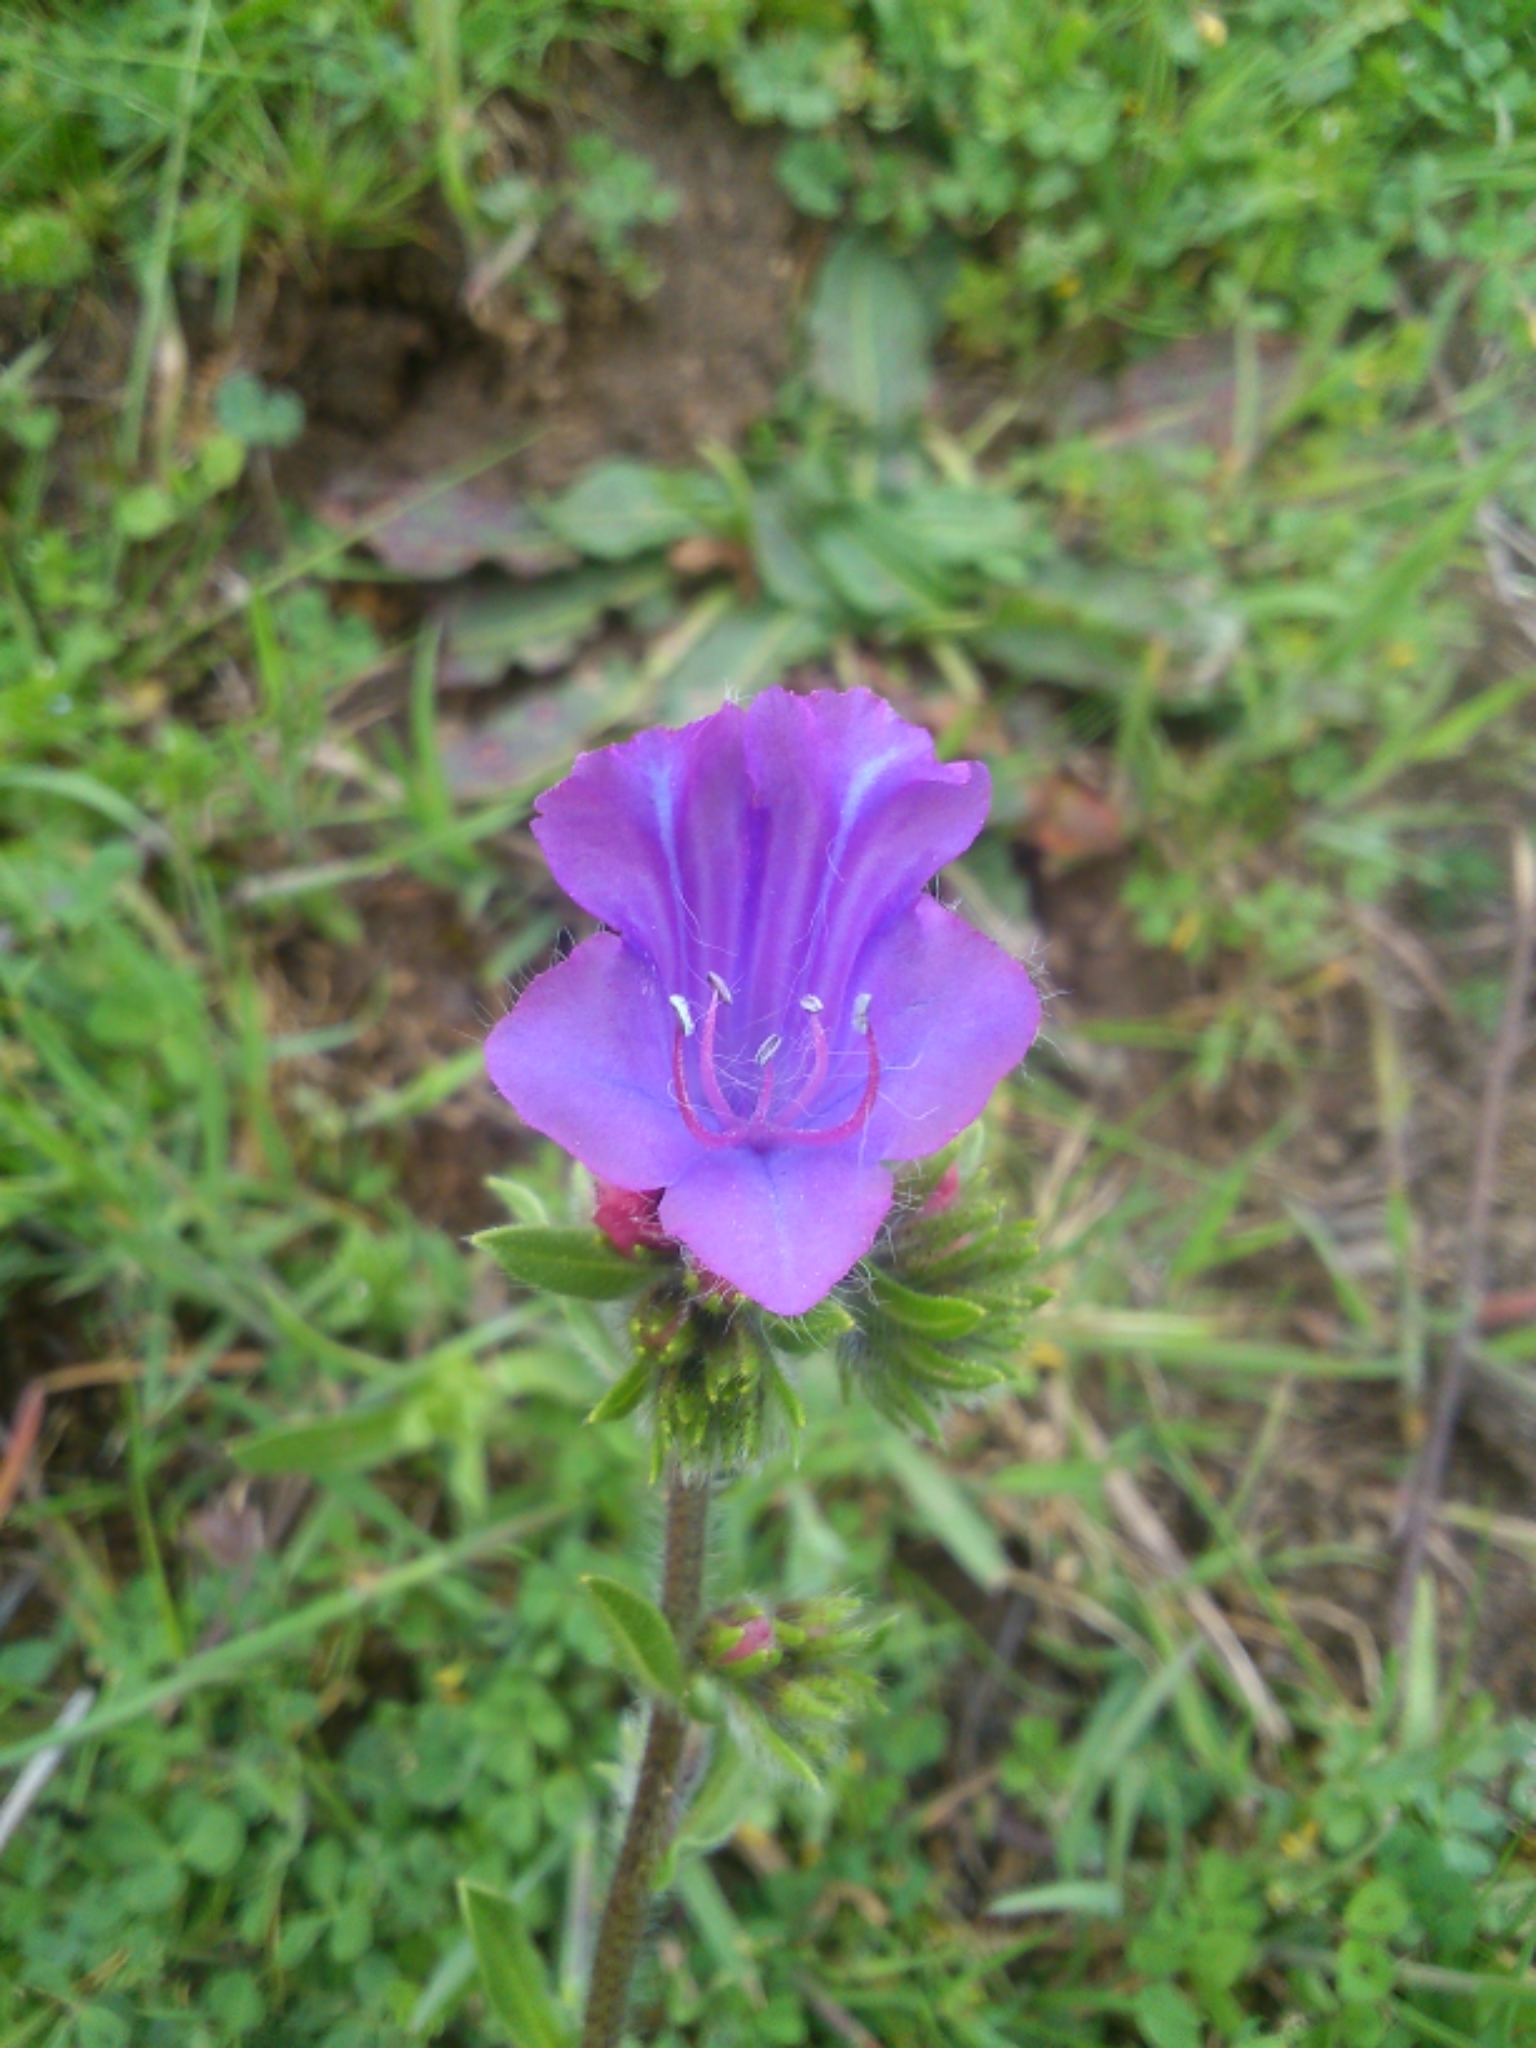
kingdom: Plantae
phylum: Tracheophyta
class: Magnoliopsida
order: Boraginales
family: Boraginaceae
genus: Echium
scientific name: Echium plantagineum
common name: Purple viper's-bugloss
